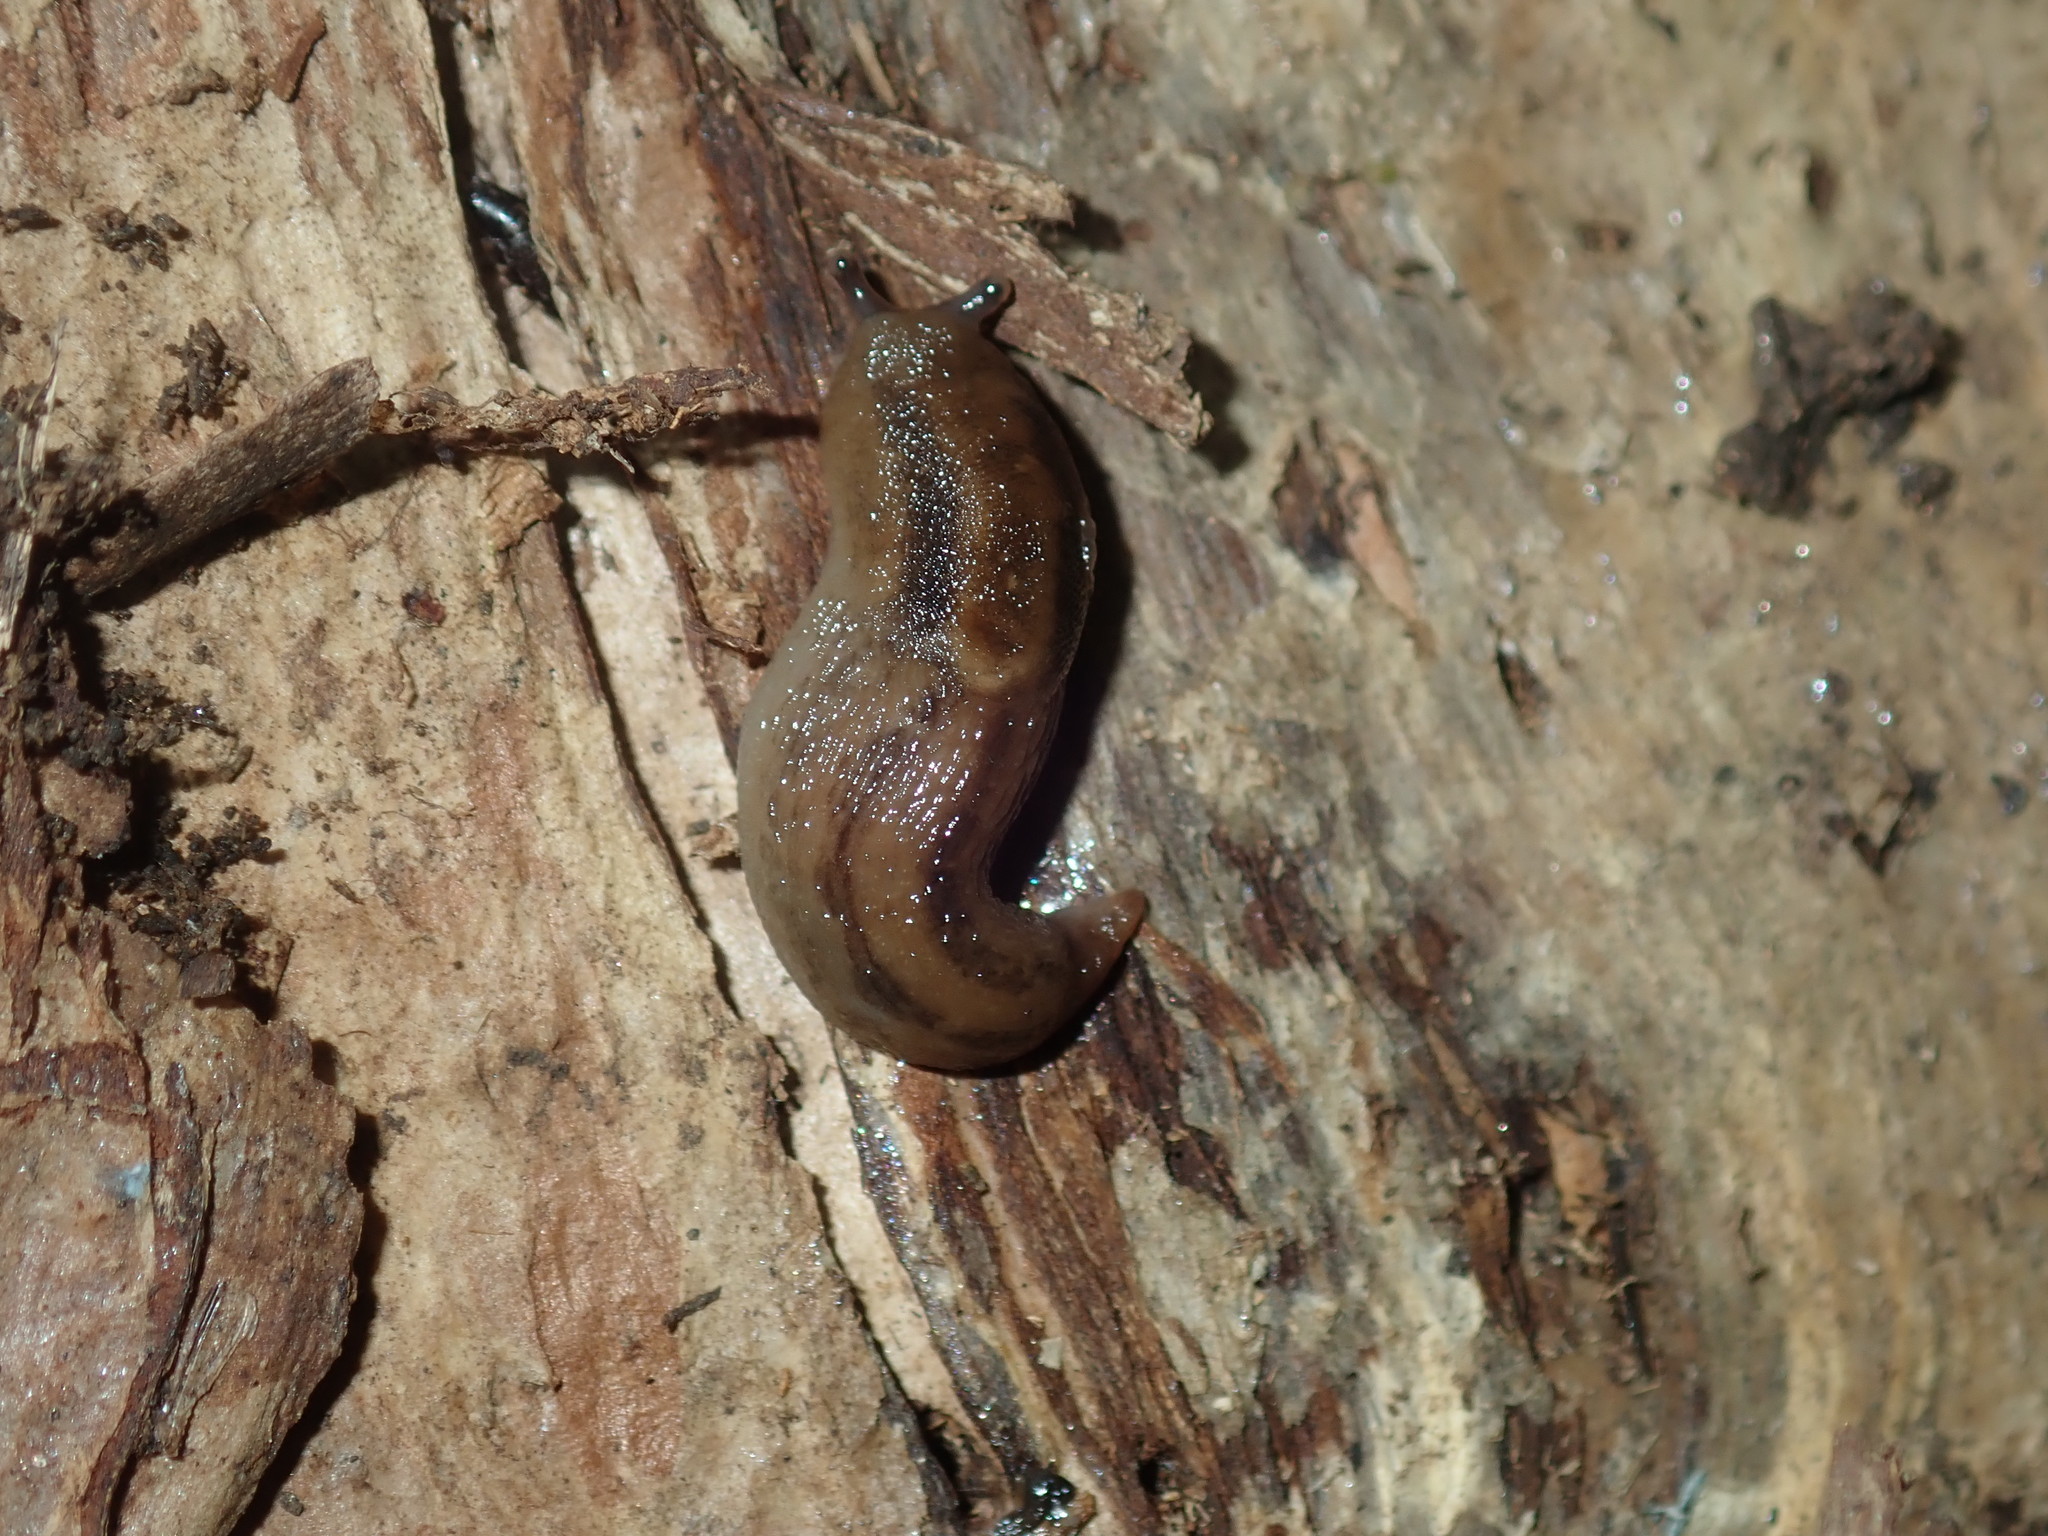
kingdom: Animalia
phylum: Mollusca
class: Gastropoda
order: Stylommatophora
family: Limacidae
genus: Ambigolimax
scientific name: Ambigolimax
